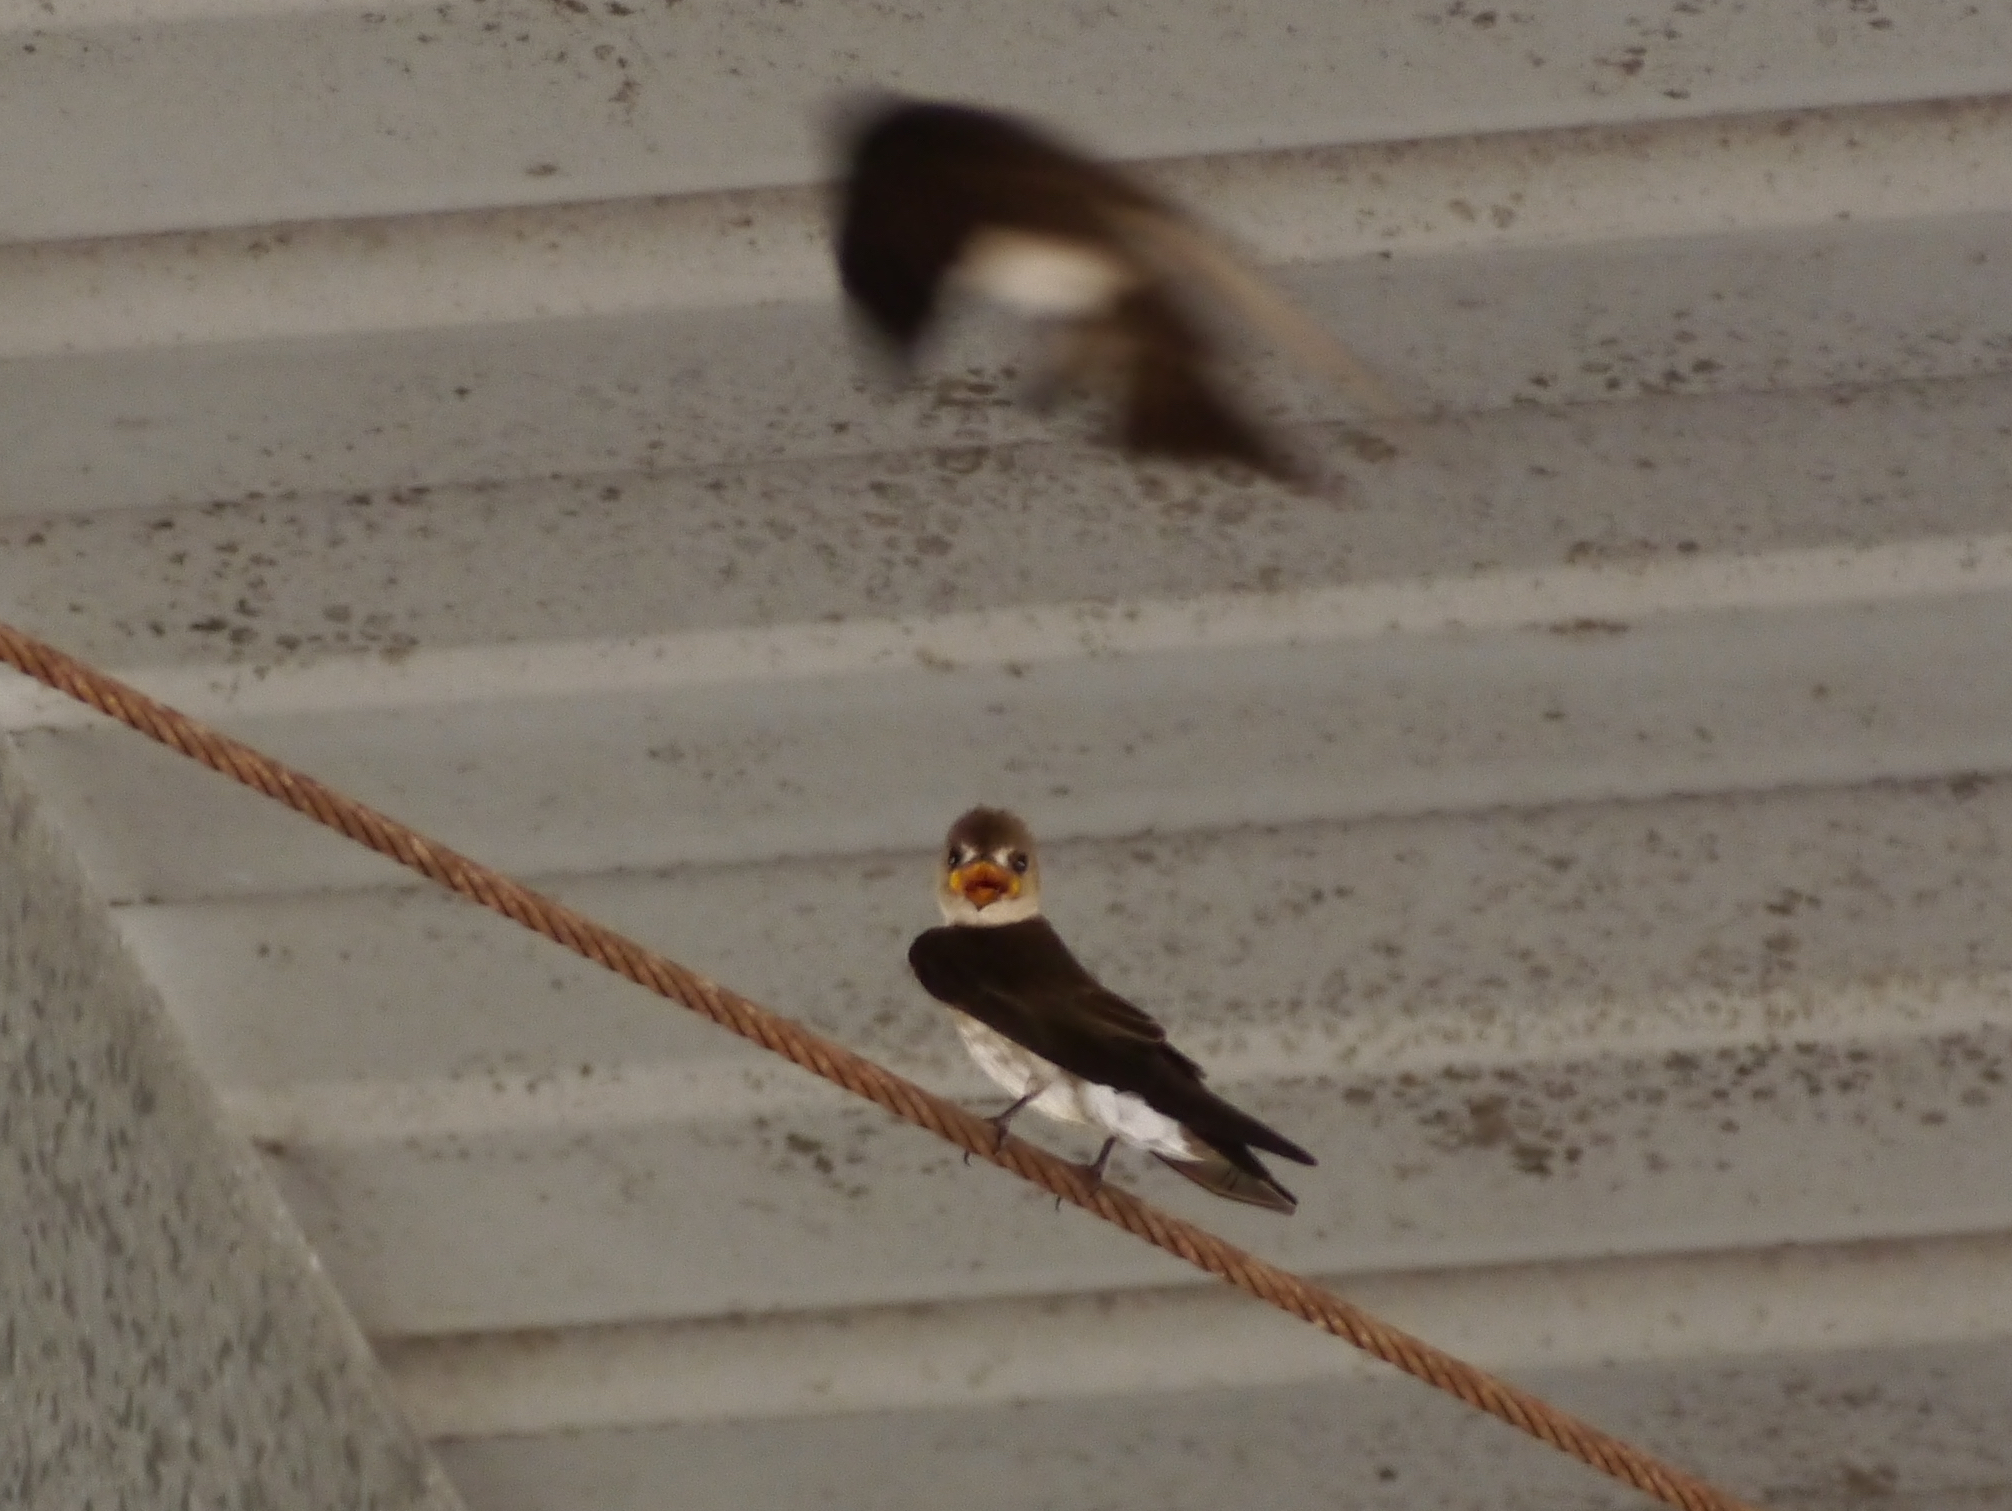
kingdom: Animalia
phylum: Chordata
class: Aves
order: Passeriformes
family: Hirundinidae
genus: Stelgidopteryx
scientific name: Stelgidopteryx serripennis
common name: Northern rough-winged swallow
